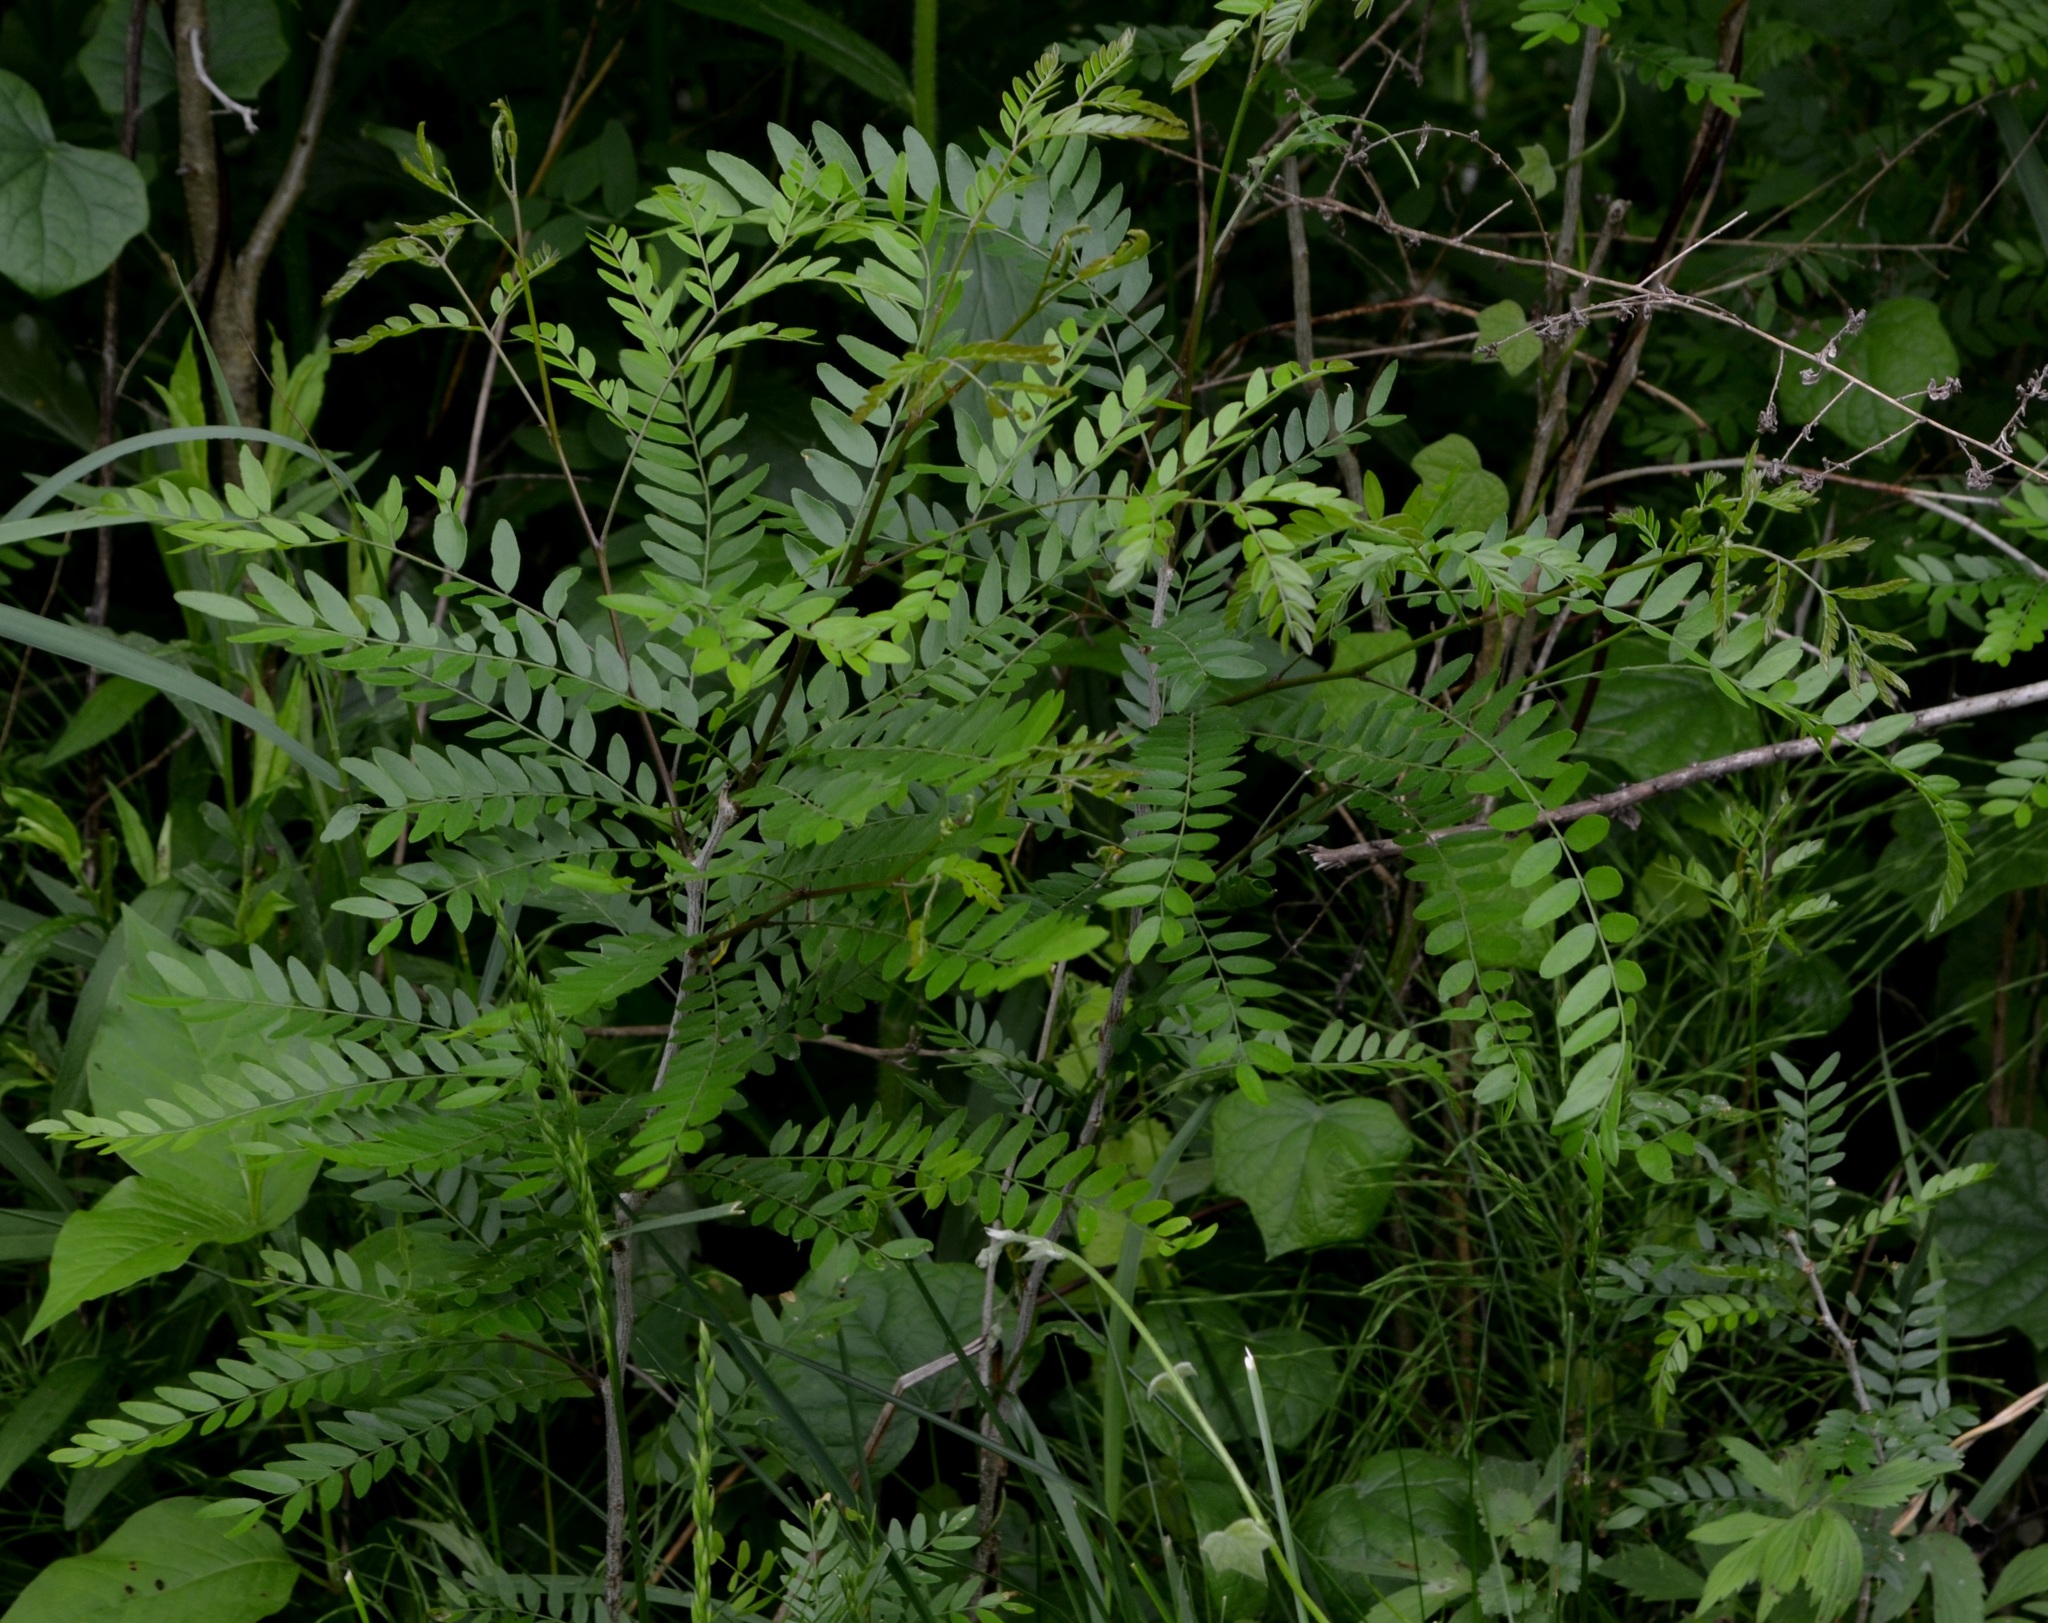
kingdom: Plantae
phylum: Tracheophyta
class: Magnoliopsida
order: Fabales
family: Fabaceae
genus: Gleditsia
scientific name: Gleditsia triacanthos
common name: Common honeylocust
